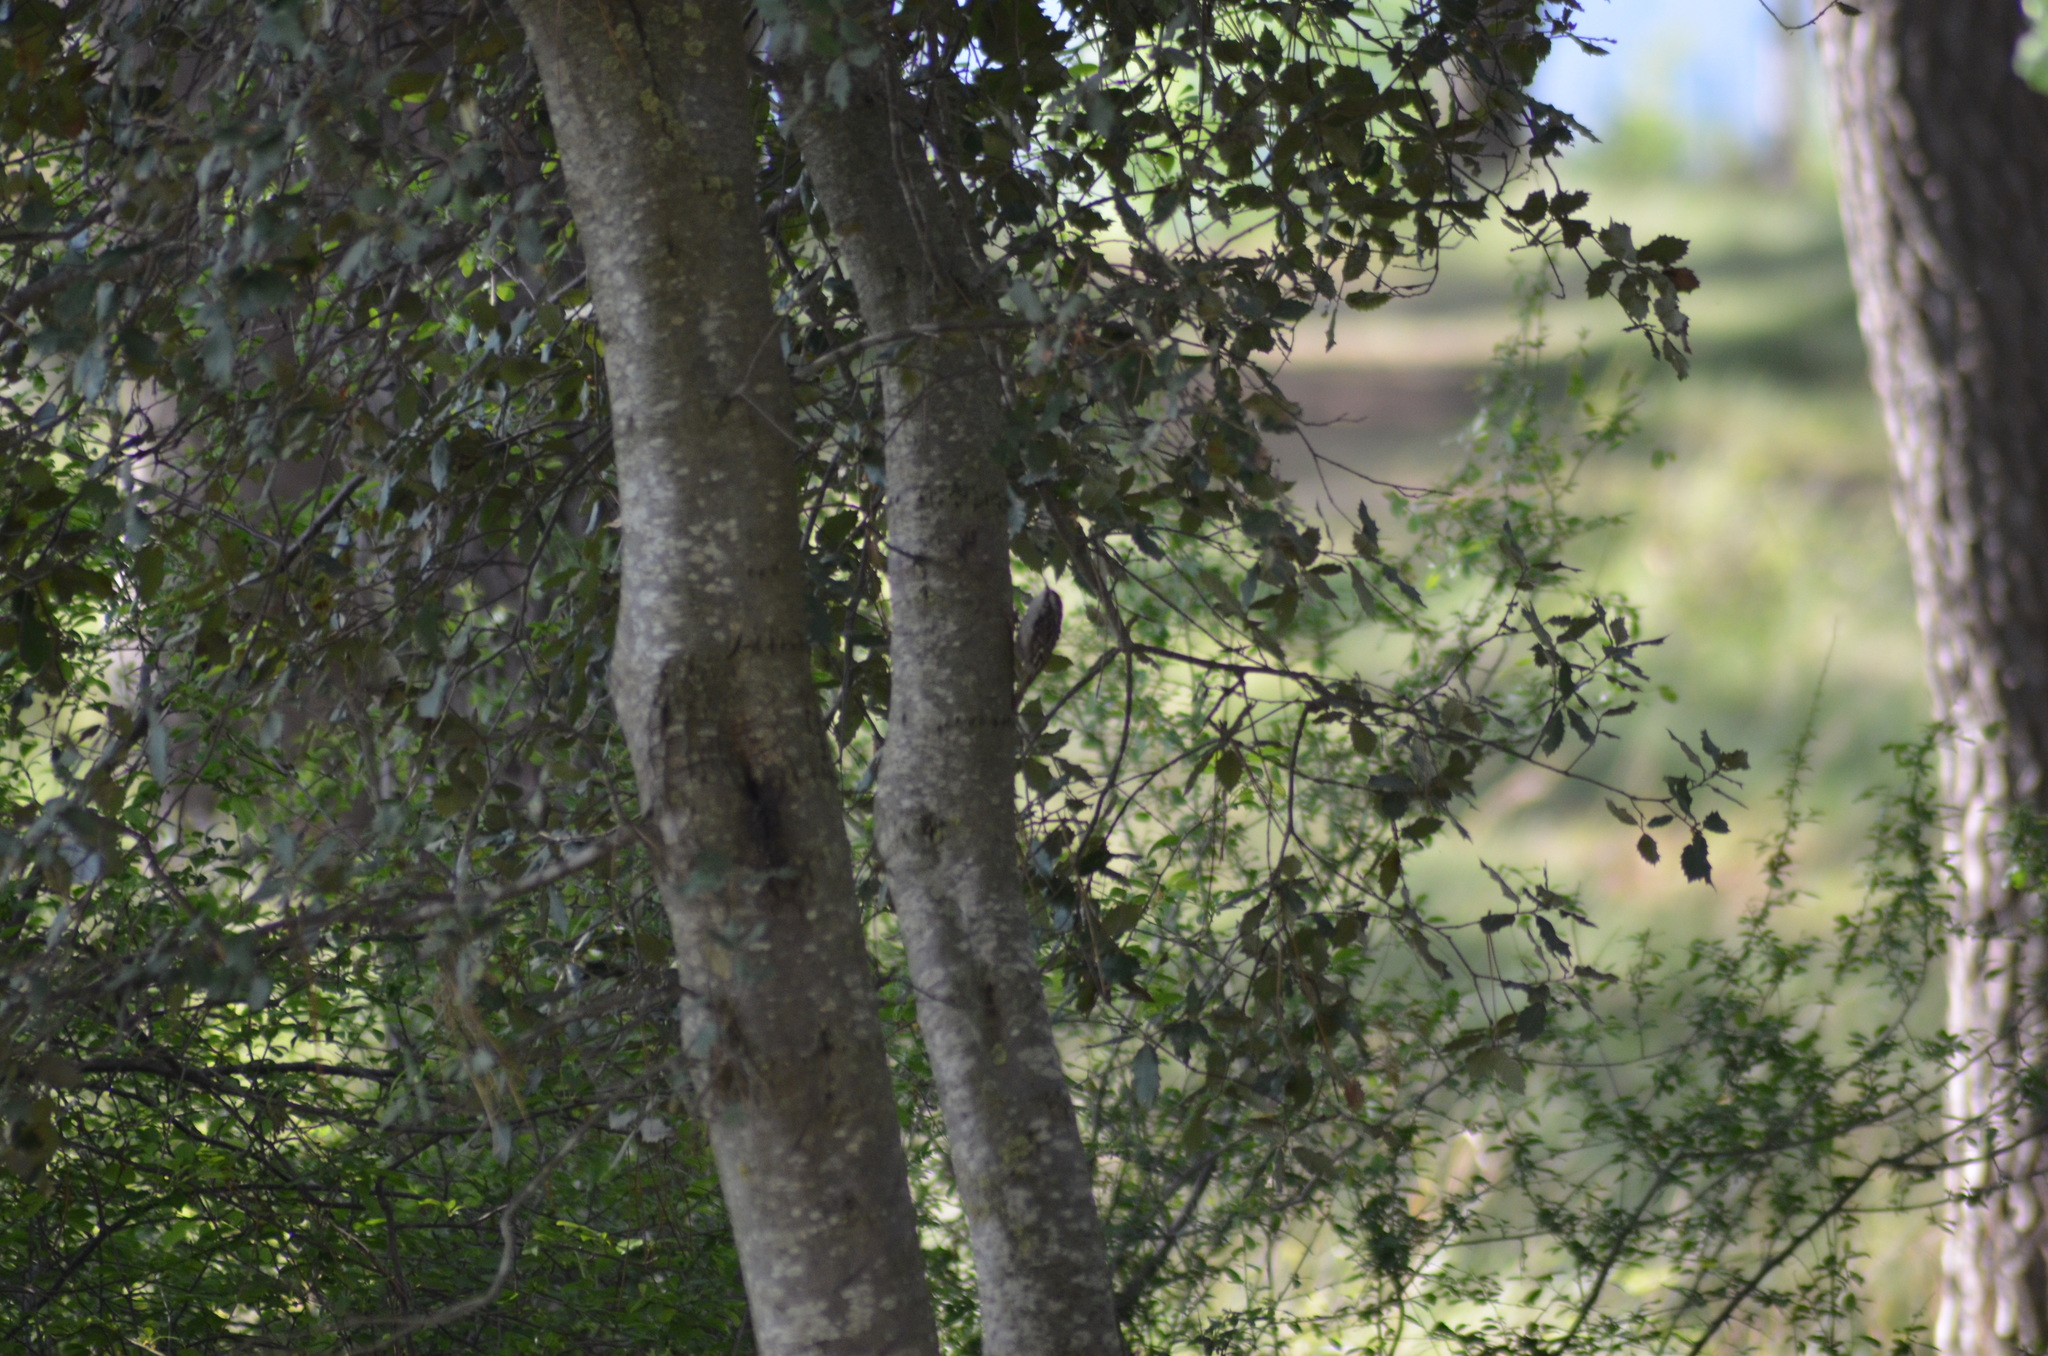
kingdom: Animalia
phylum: Chordata
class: Aves
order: Passeriformes
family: Certhiidae
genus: Certhia
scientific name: Certhia brachydactyla
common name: Short-toed treecreeper
